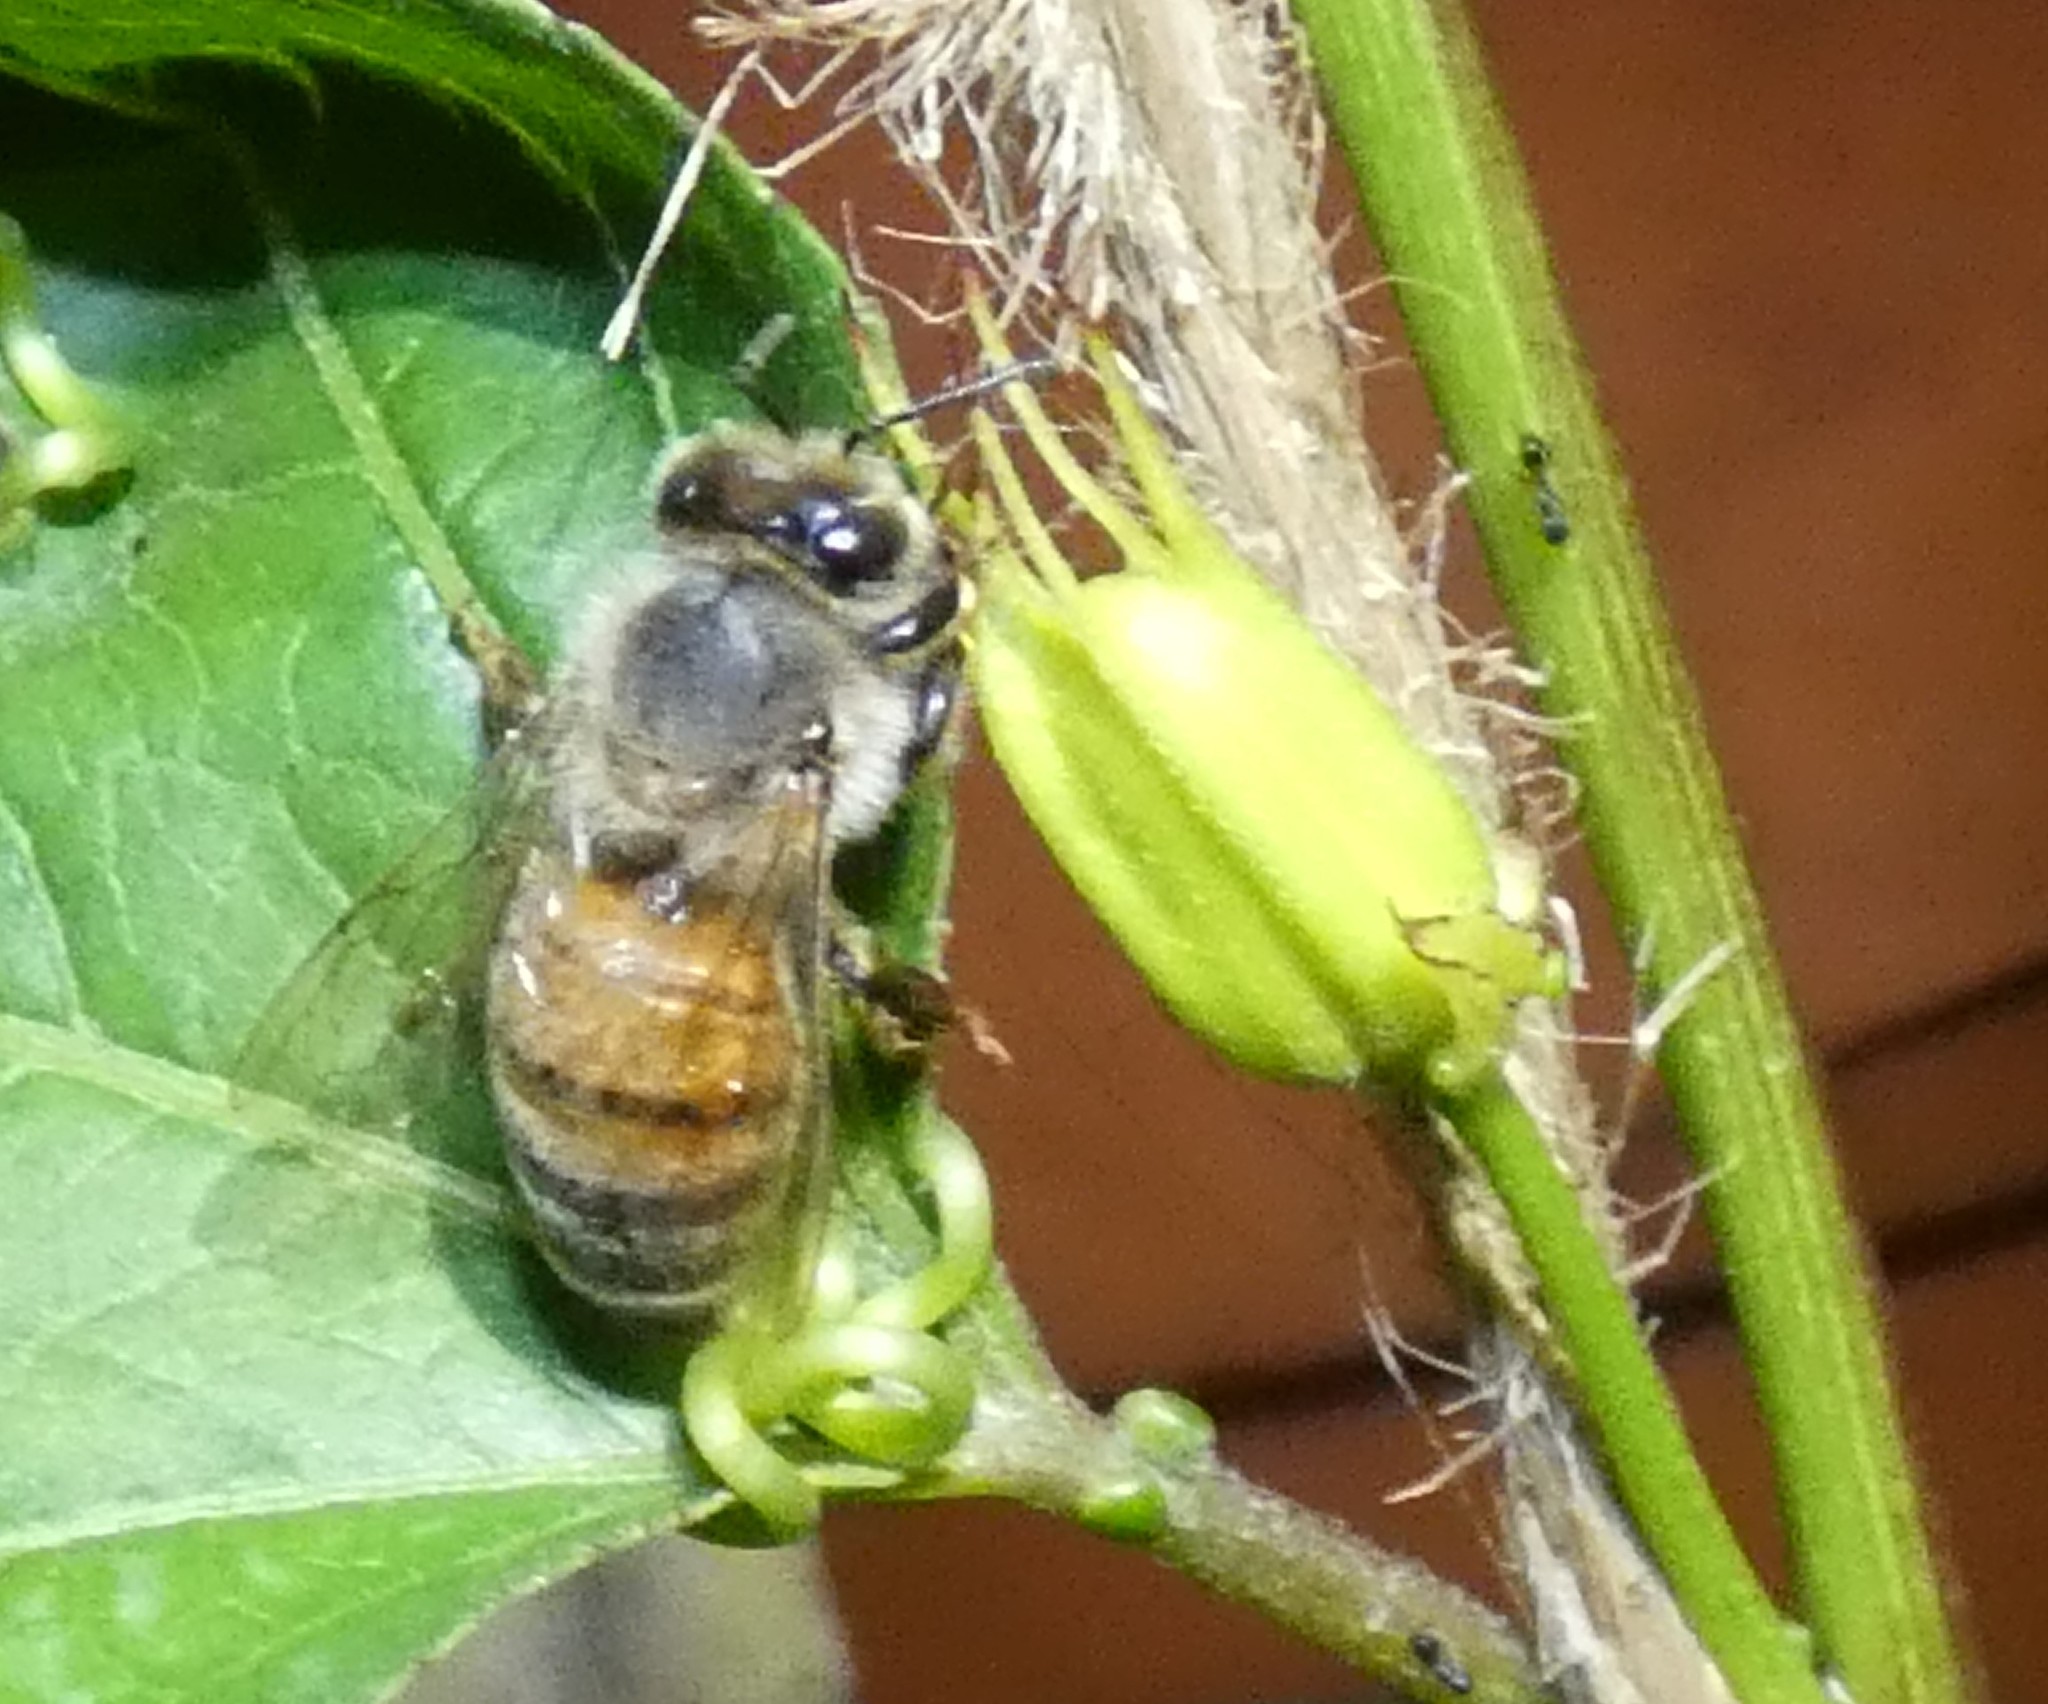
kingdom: Animalia
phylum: Arthropoda
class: Insecta
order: Hymenoptera
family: Apidae
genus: Apis
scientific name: Apis mellifera
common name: Honey bee
